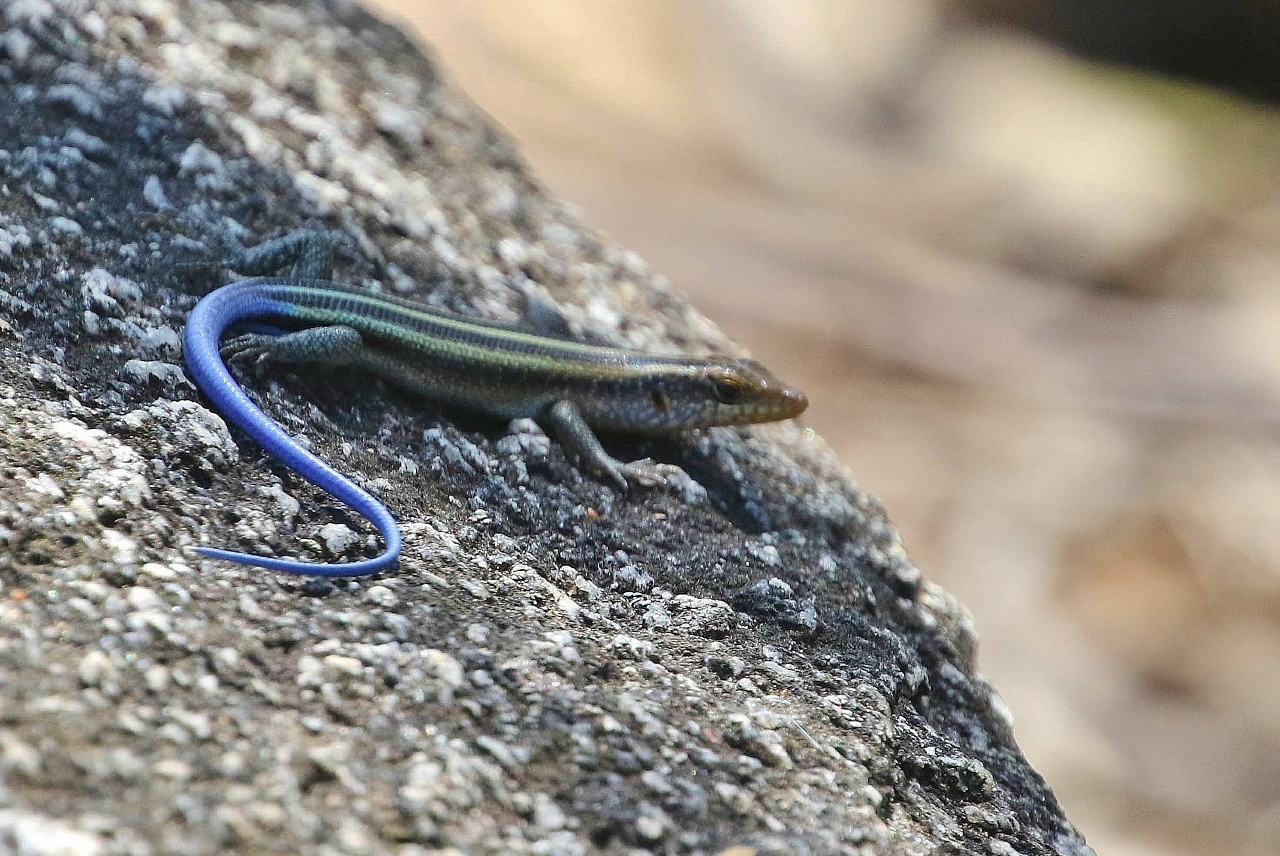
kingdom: Animalia
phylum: Chordata
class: Squamata
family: Scincidae
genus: Trachylepis
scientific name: Trachylepis margaritifera
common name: Rainbow skink
